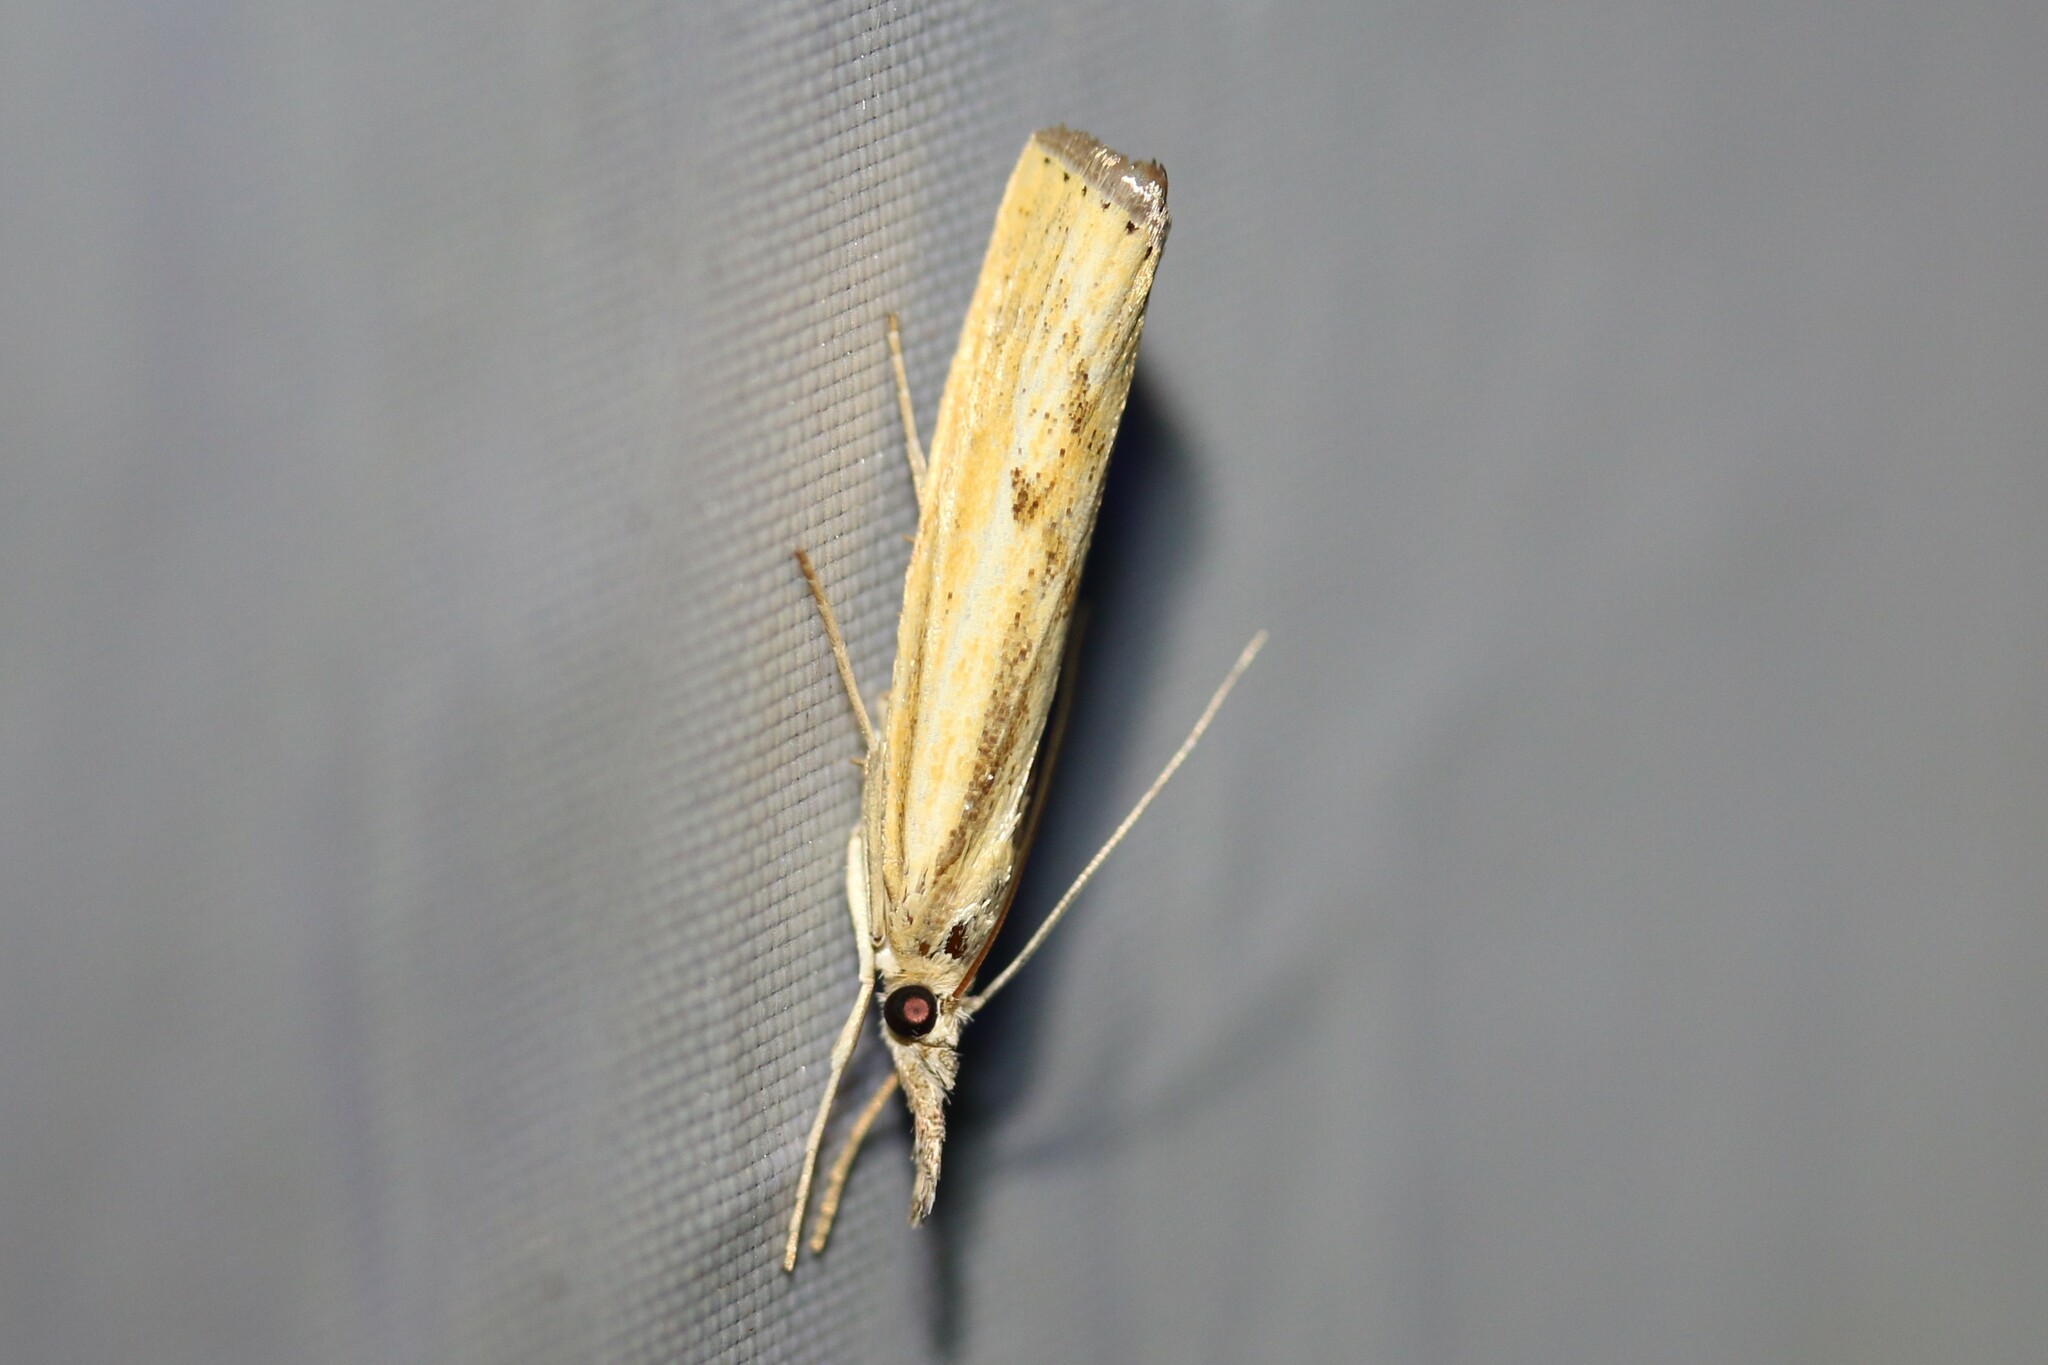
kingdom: Animalia
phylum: Arthropoda
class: Insecta
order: Lepidoptera
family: Crambidae
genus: Agriphila
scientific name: Agriphila inquinatella
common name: Barred grass-veneer
